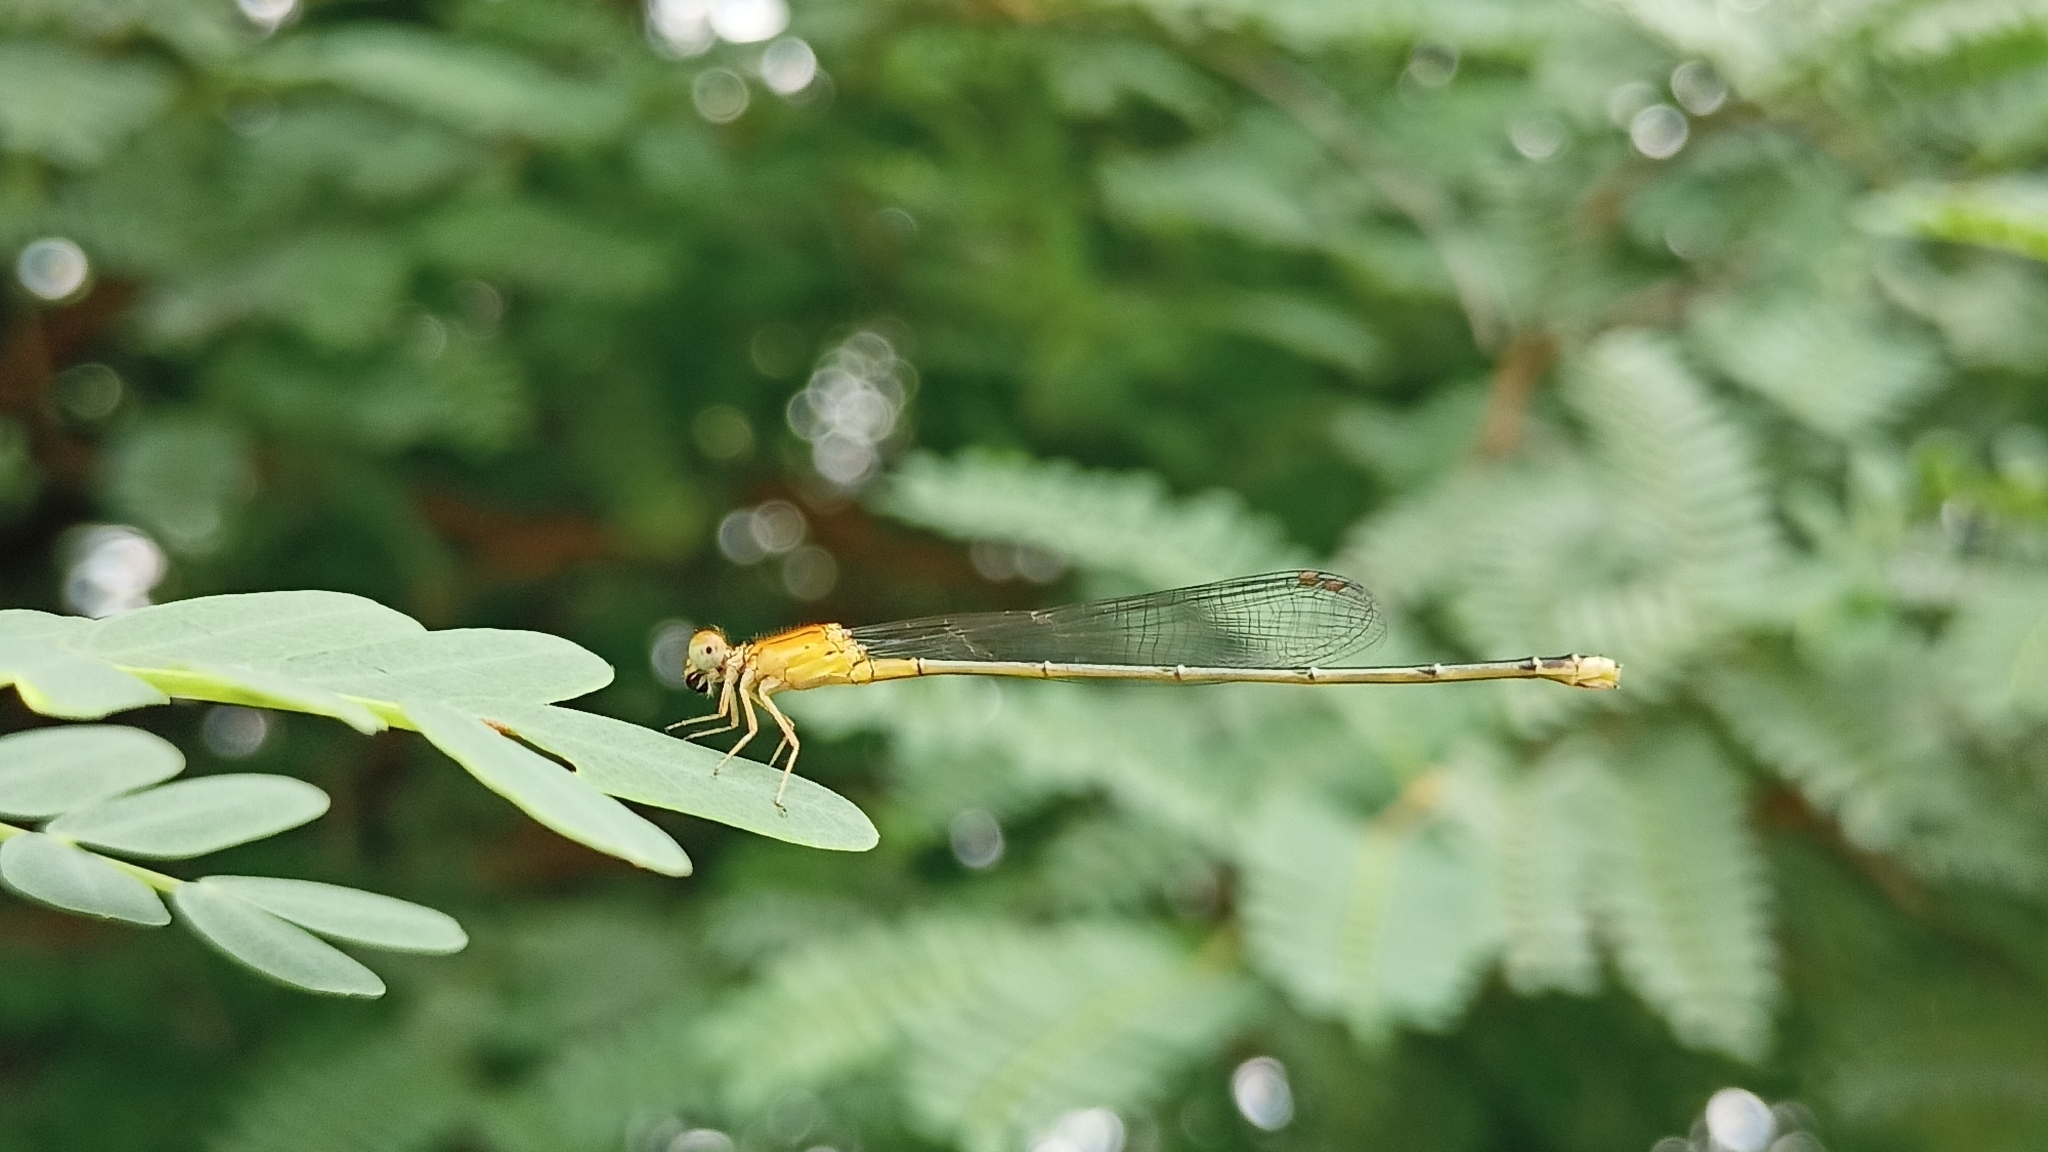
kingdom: Animalia
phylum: Arthropoda
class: Insecta
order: Odonata
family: Coenagrionidae
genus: Pseudagrion
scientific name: Pseudagrion rubriceps
